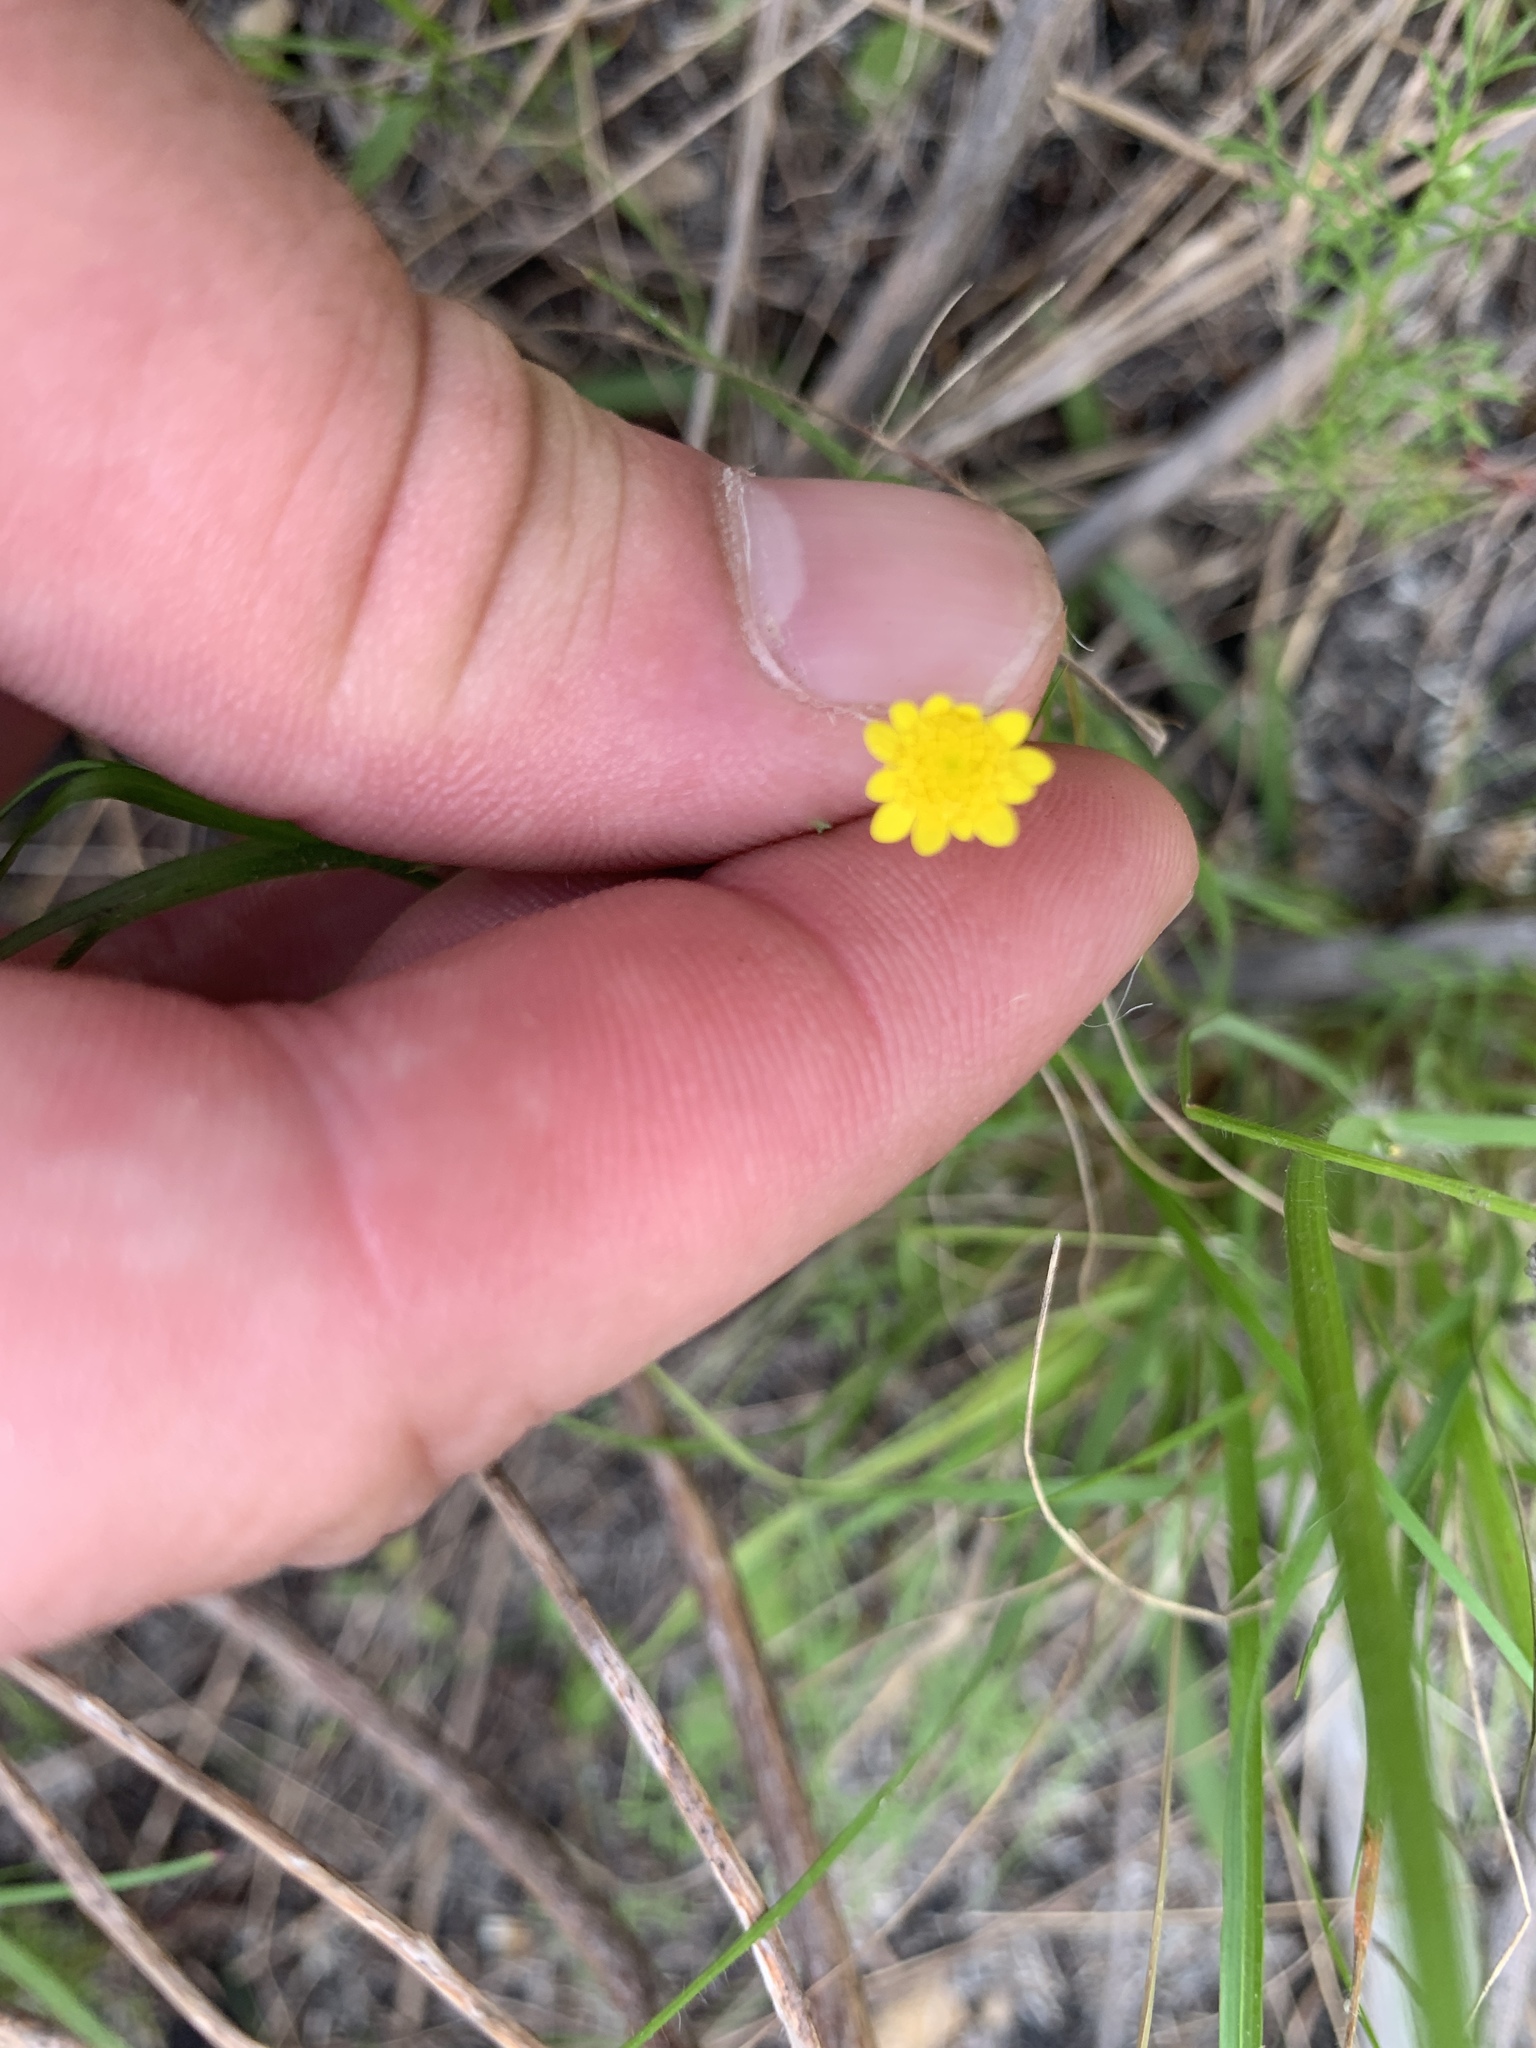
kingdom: Plantae
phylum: Tracheophyta
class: Magnoliopsida
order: Asterales
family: Asteraceae
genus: Cotula
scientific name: Cotula pruinosa
